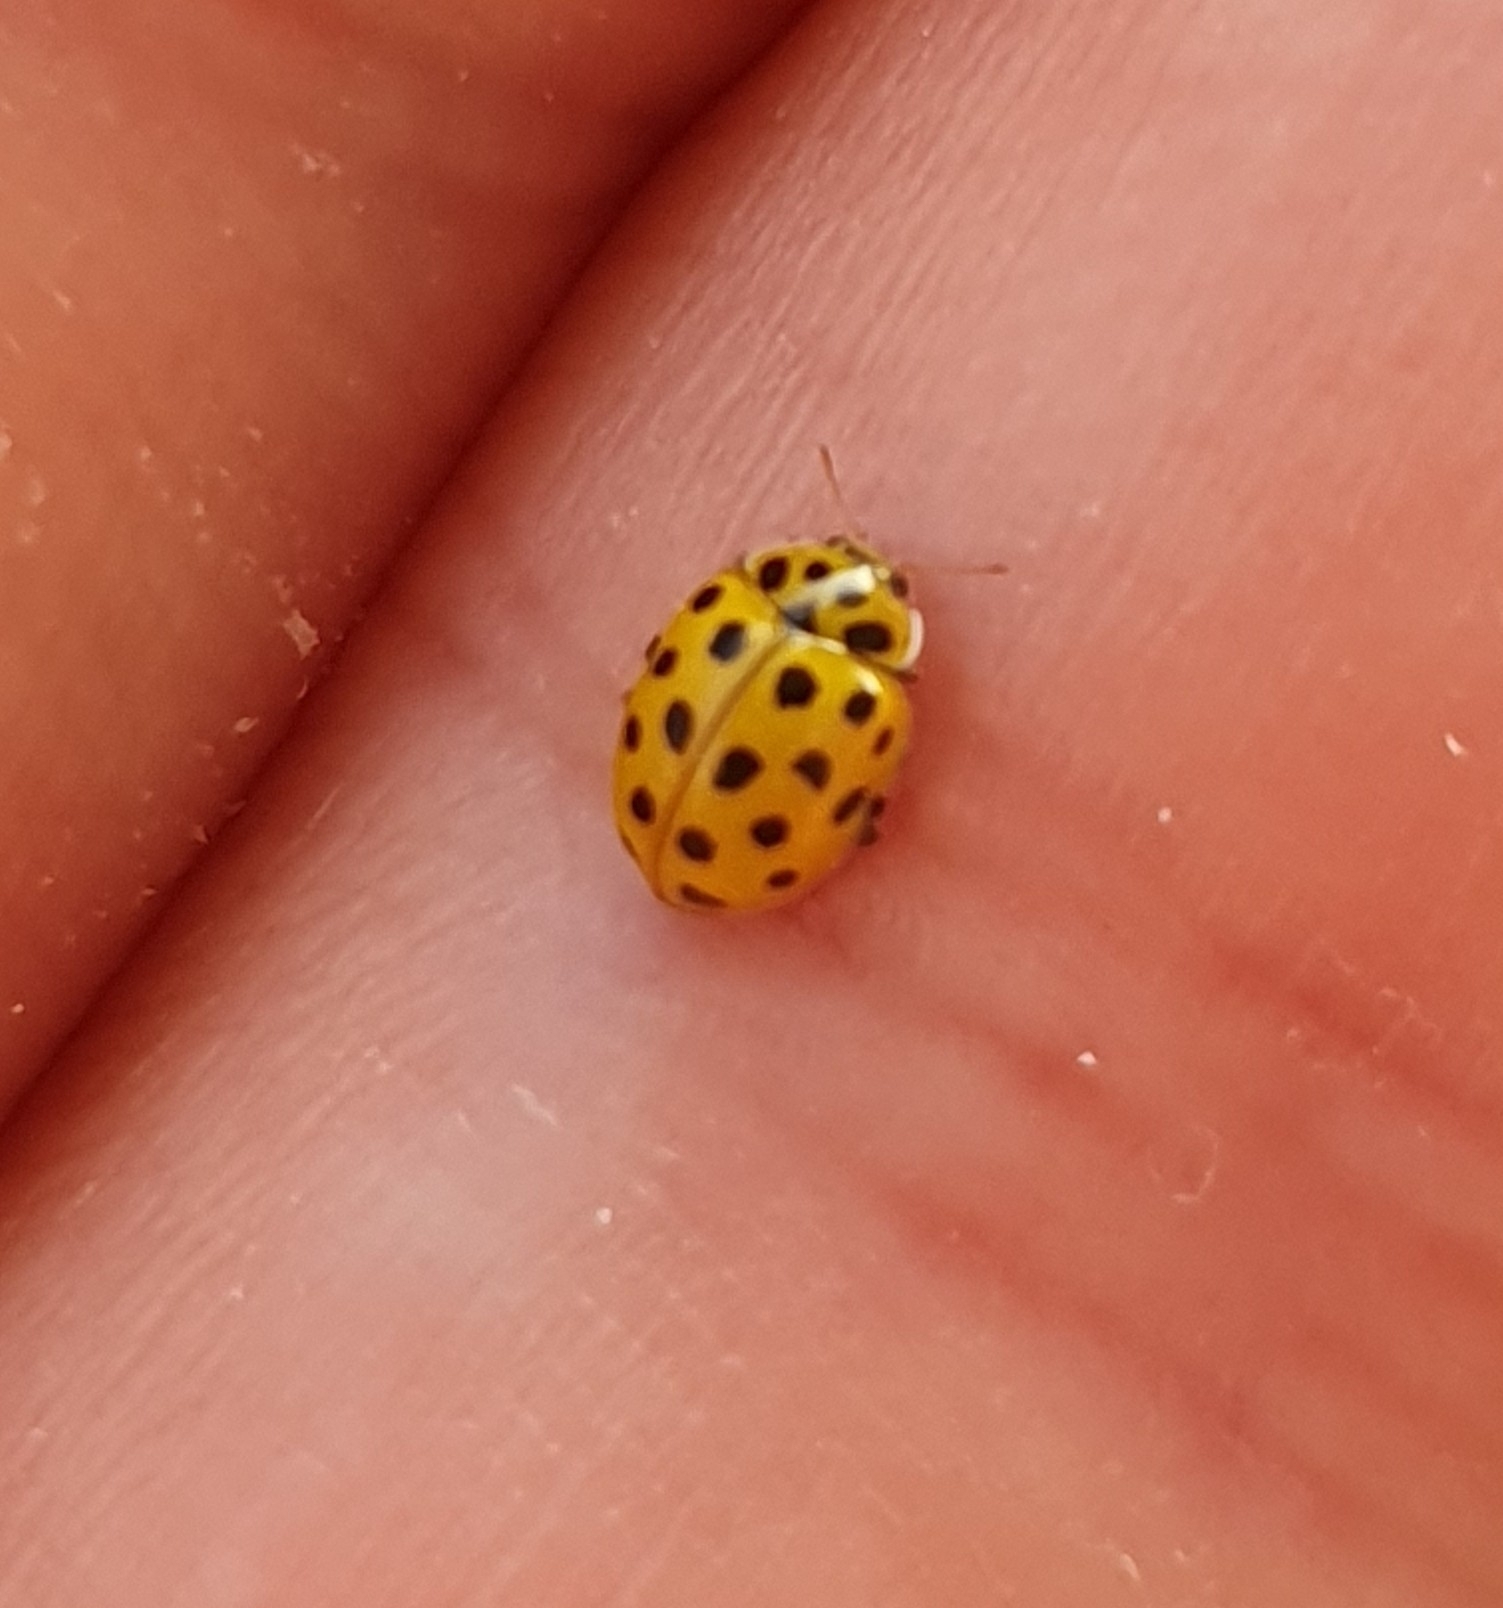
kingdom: Animalia
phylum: Arthropoda
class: Insecta
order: Coleoptera
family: Coccinellidae
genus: Psyllobora
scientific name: Psyllobora vigintiduopunctata
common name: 22-spot ladybird
